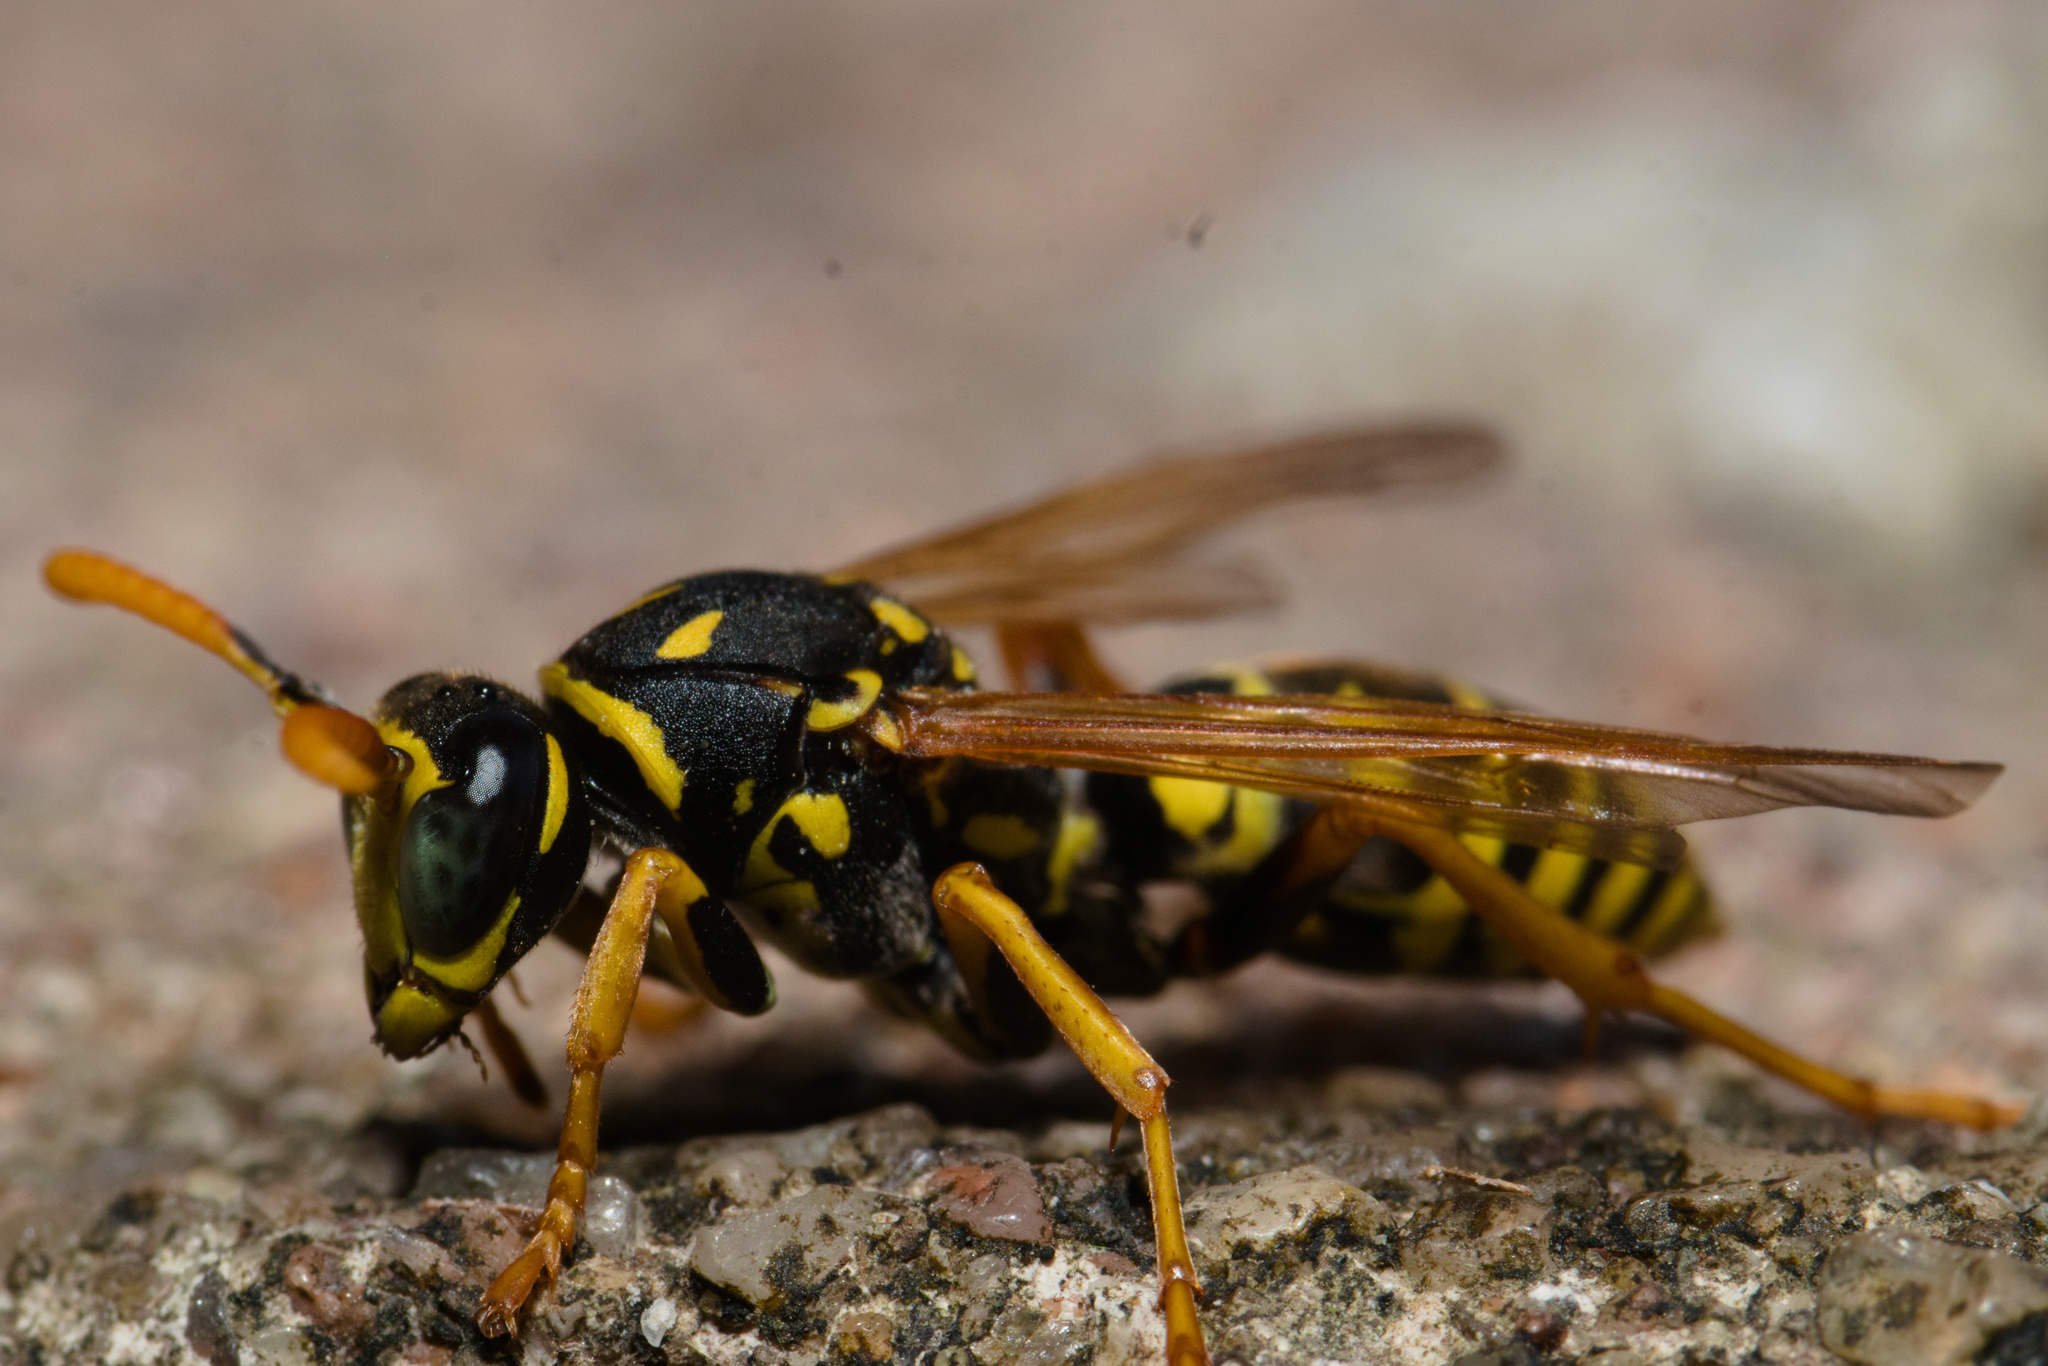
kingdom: Animalia
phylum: Arthropoda
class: Insecta
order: Hymenoptera
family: Eumenidae
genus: Polistes
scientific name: Polistes dominula
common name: Paper wasp
